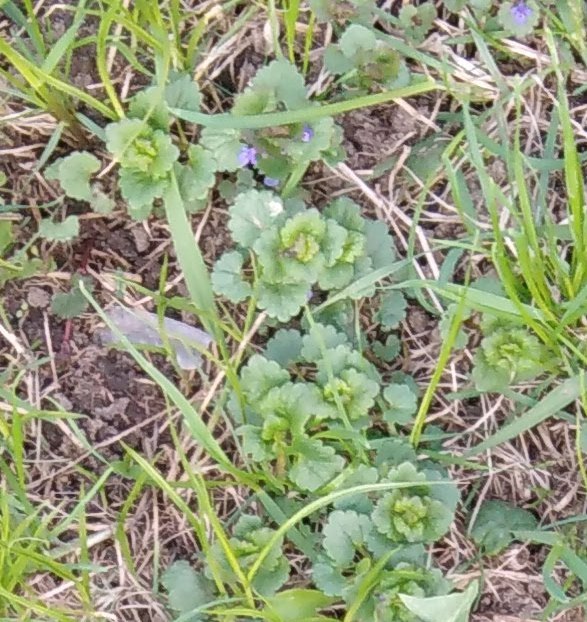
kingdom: Plantae
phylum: Tracheophyta
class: Magnoliopsida
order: Lamiales
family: Lamiaceae
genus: Glechoma
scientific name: Glechoma hederacea
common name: Ground ivy
